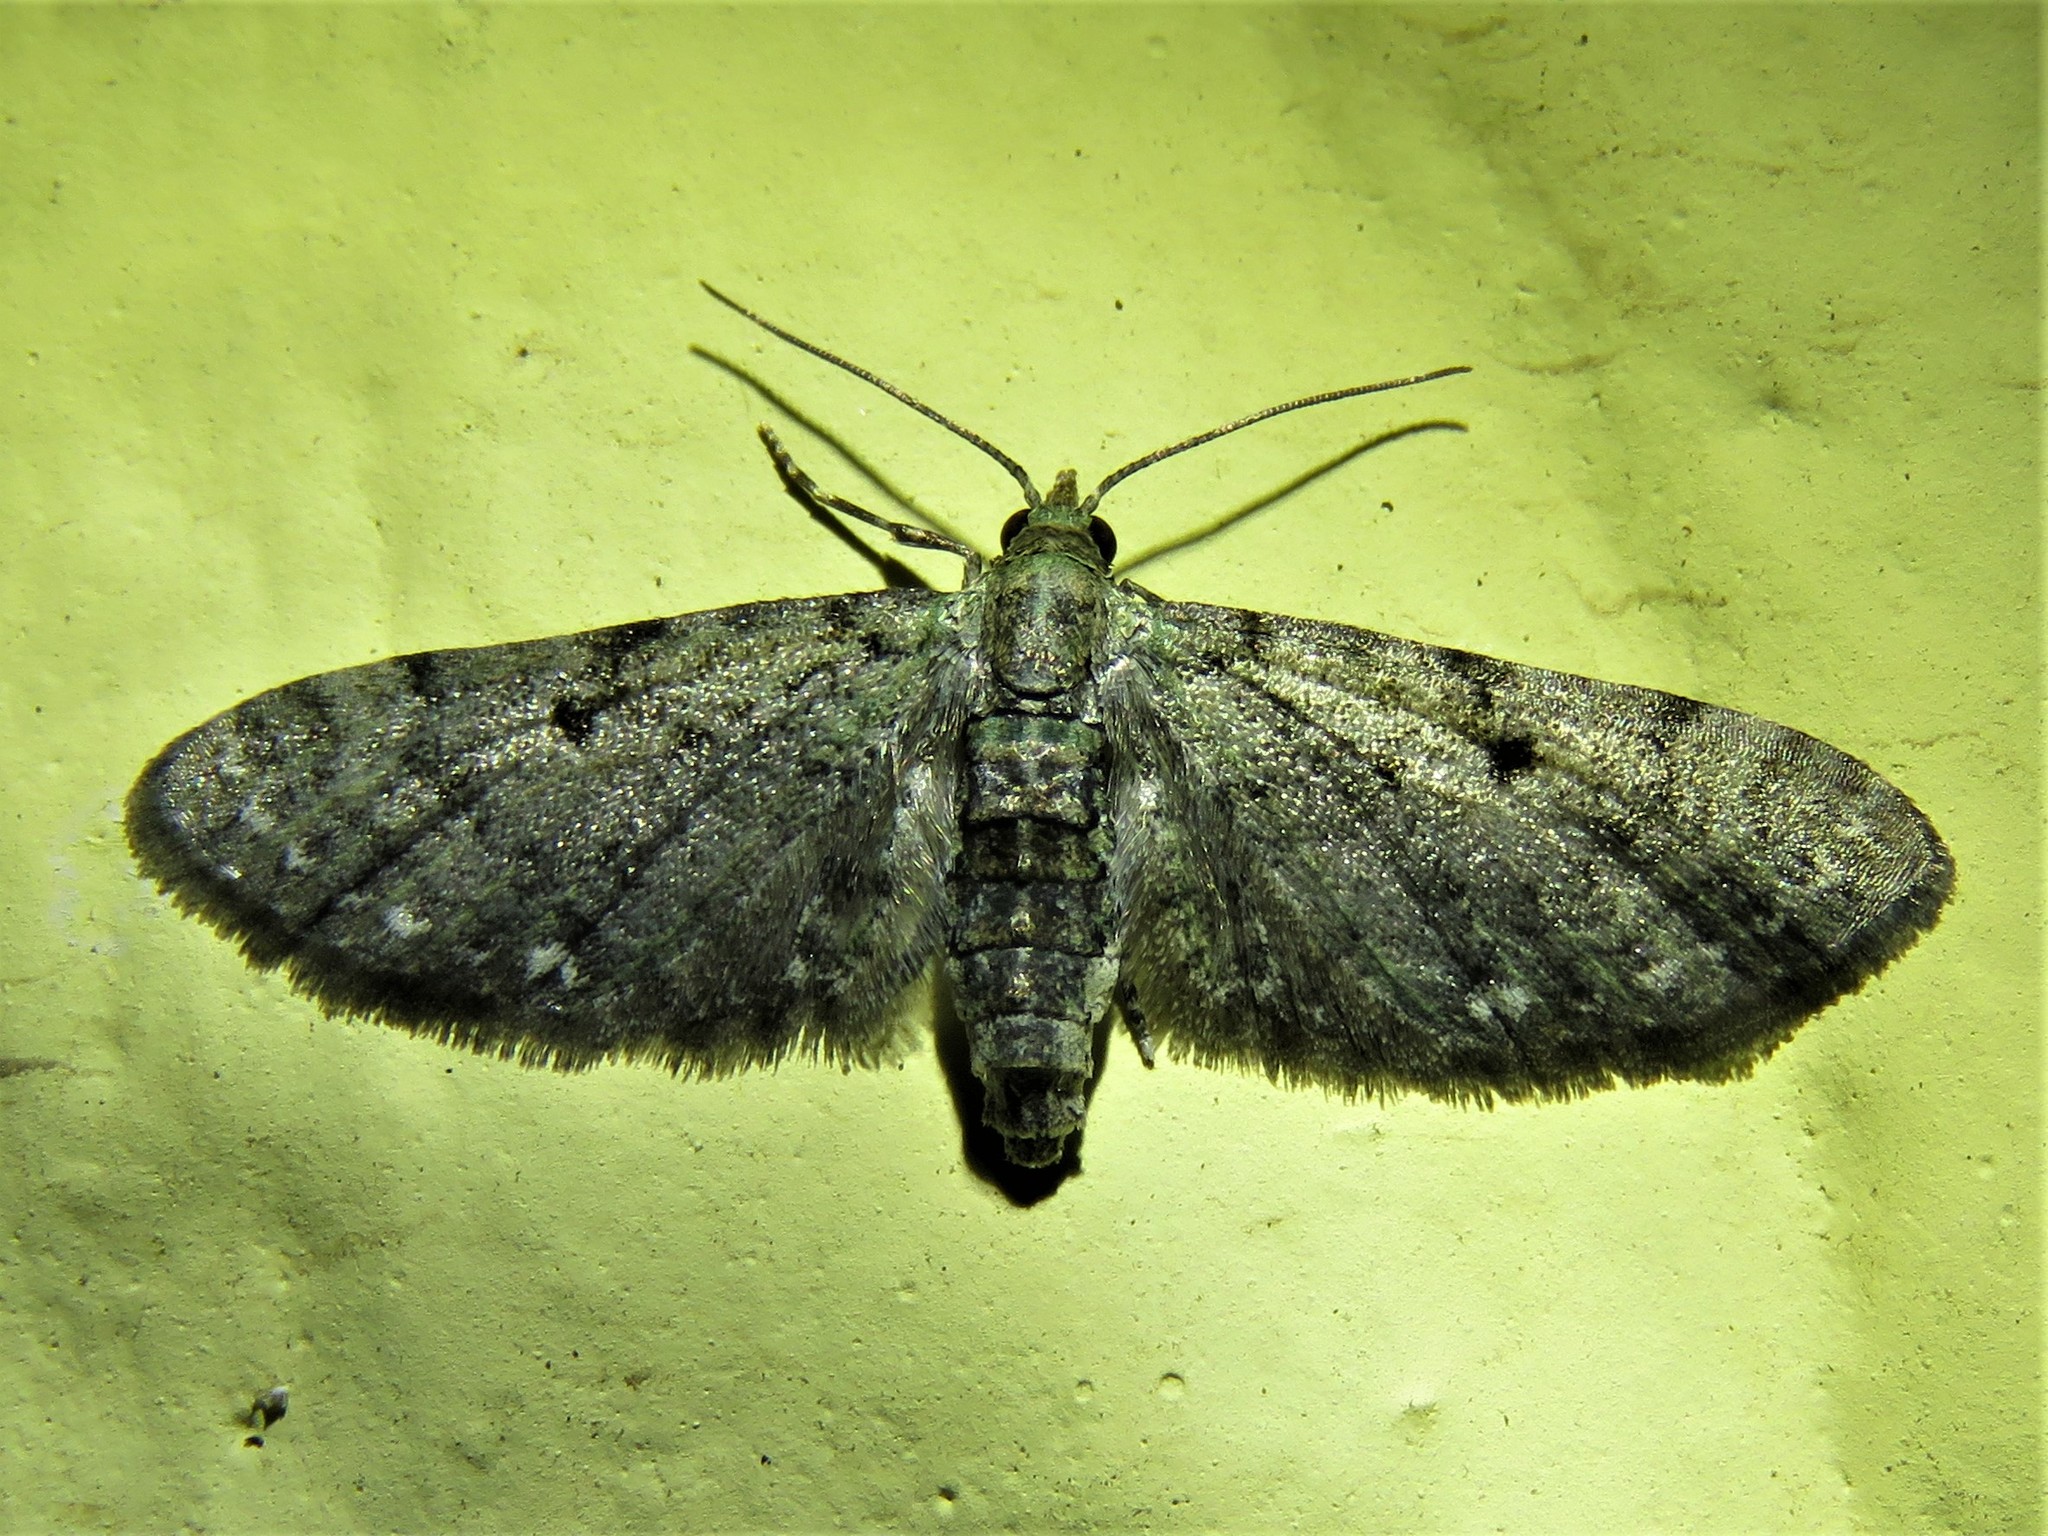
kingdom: Animalia
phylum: Arthropoda
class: Insecta
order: Lepidoptera
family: Geometridae
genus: Eupithecia
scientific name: Eupithecia miserulata
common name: Common eupithecia
